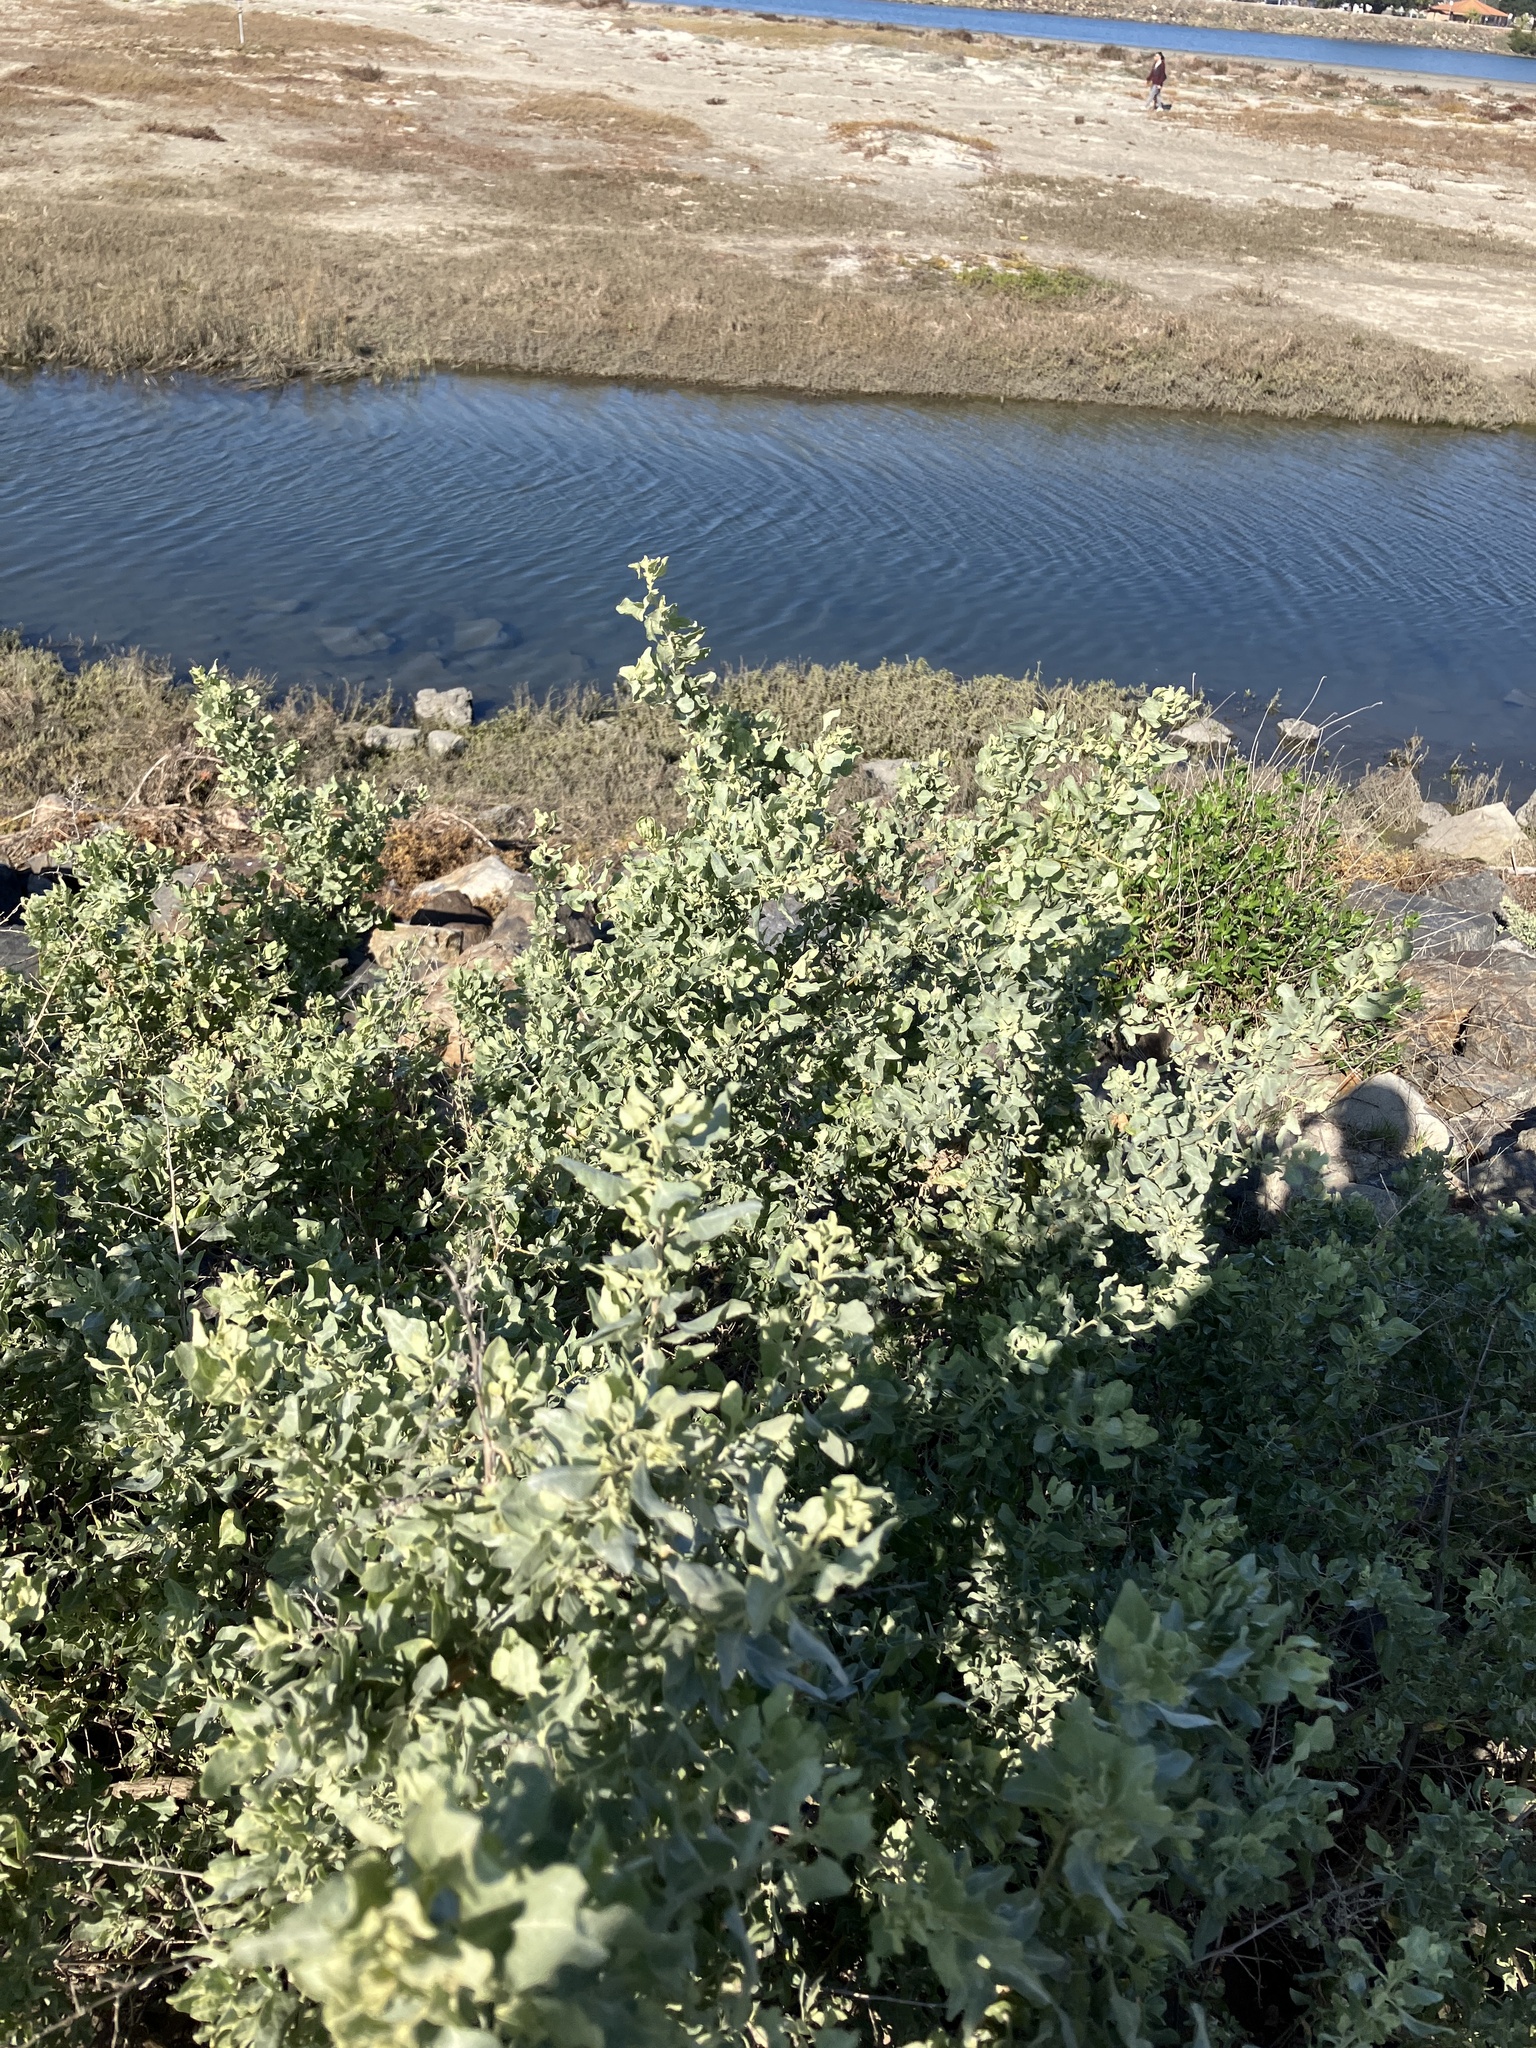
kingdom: Plantae
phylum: Tracheophyta
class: Magnoliopsida
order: Caryophyllales
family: Amaranthaceae
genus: Atriplex
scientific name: Atriplex lentiformis
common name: Big saltbush
